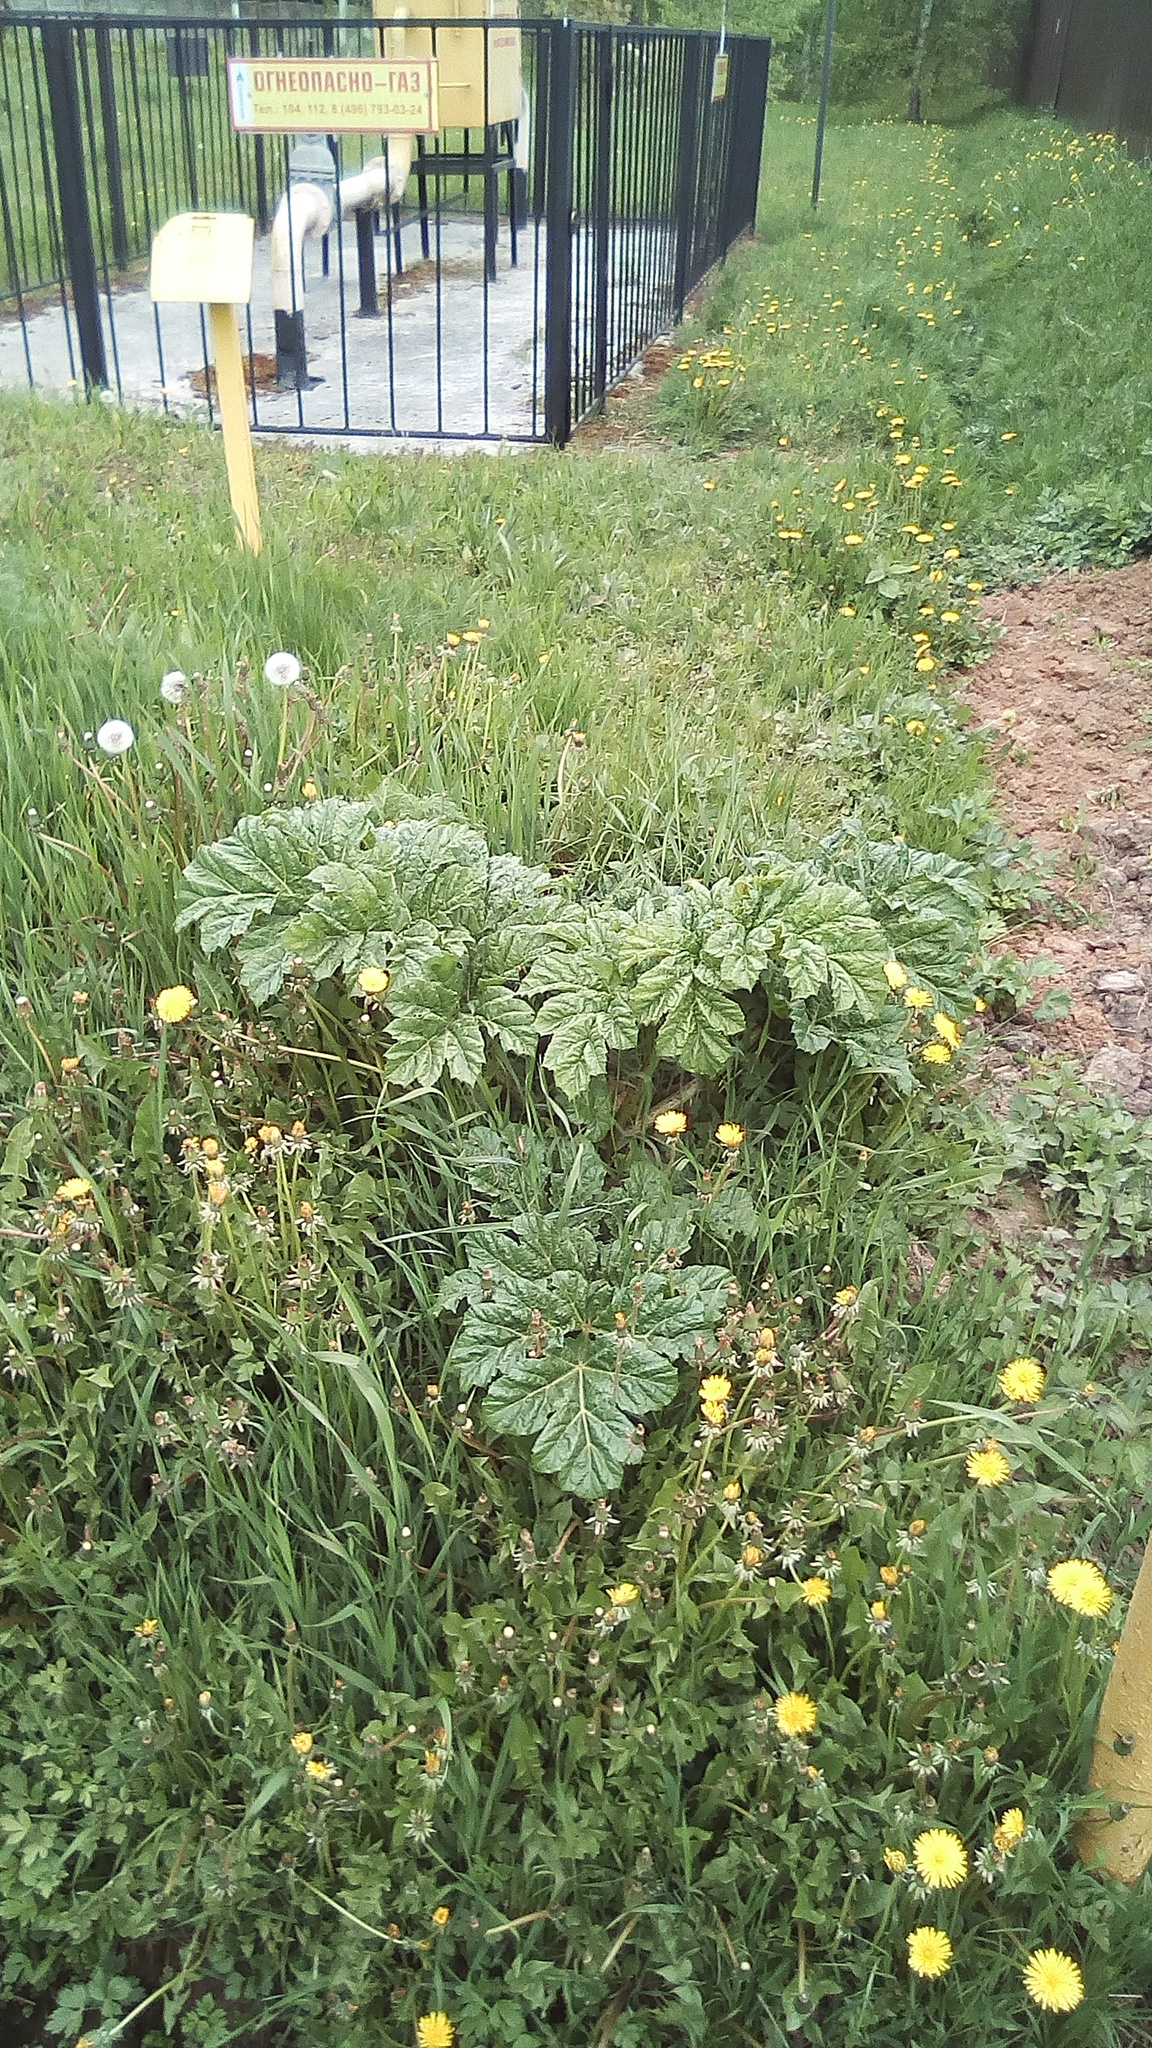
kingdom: Plantae
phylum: Tracheophyta
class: Magnoliopsida
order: Apiales
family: Apiaceae
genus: Heracleum
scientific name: Heracleum sosnowskyi
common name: Sosnowsky's hogweed
